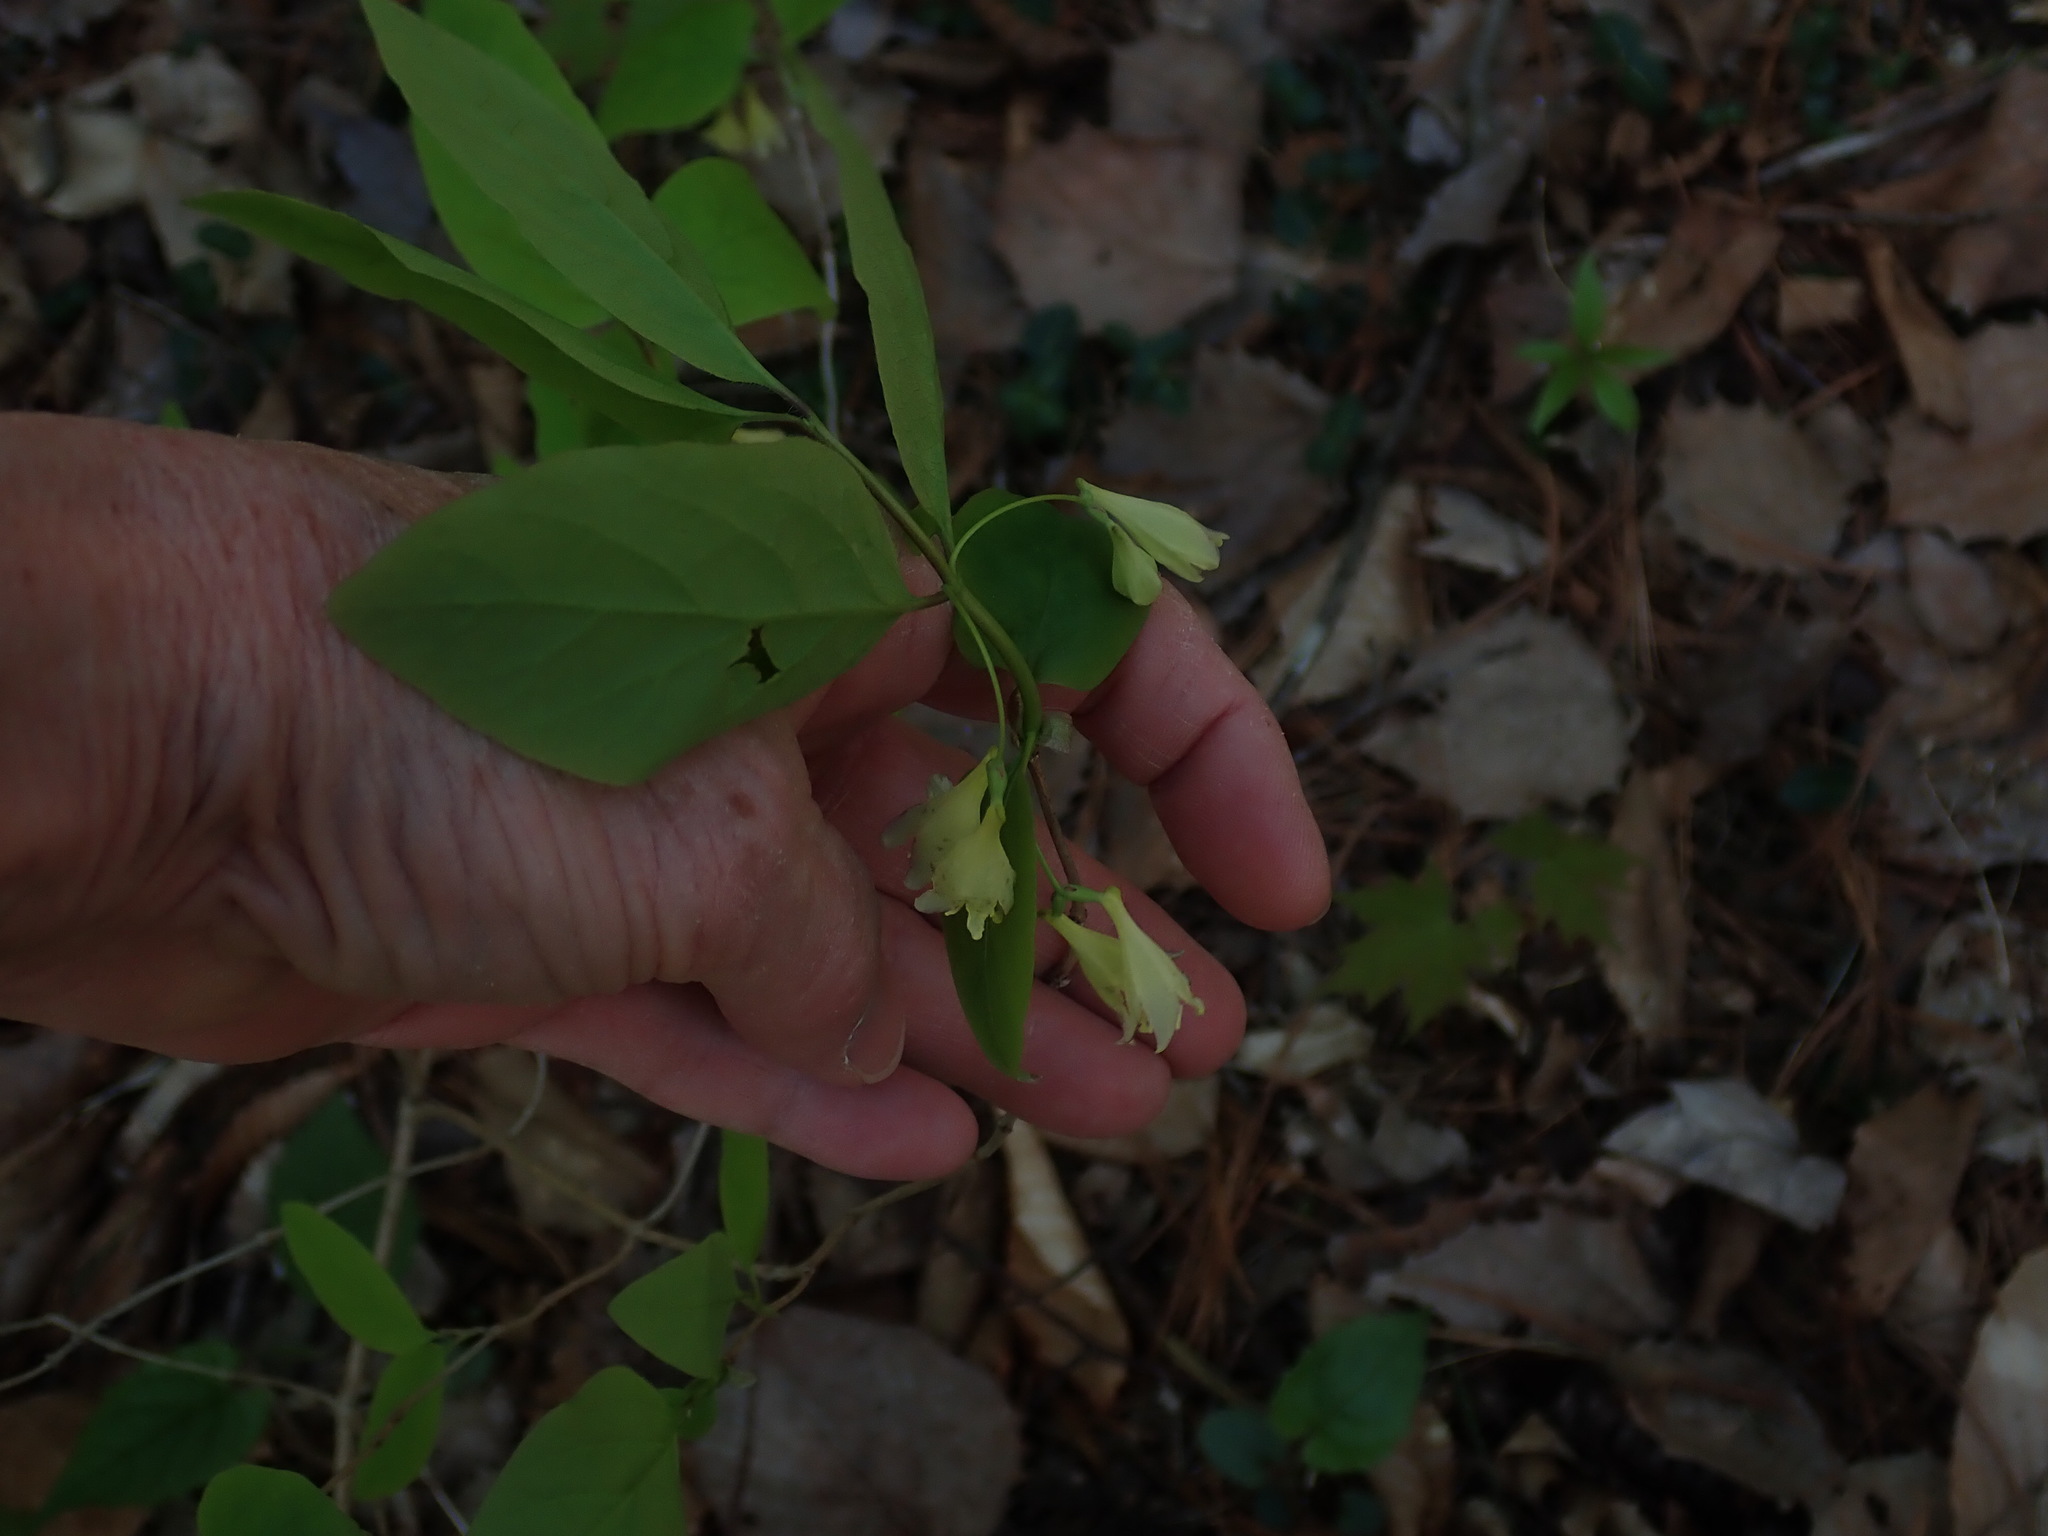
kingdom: Plantae
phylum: Tracheophyta
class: Magnoliopsida
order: Dipsacales
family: Caprifoliaceae
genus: Lonicera
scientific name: Lonicera canadensis
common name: American fly-honeysuckle
